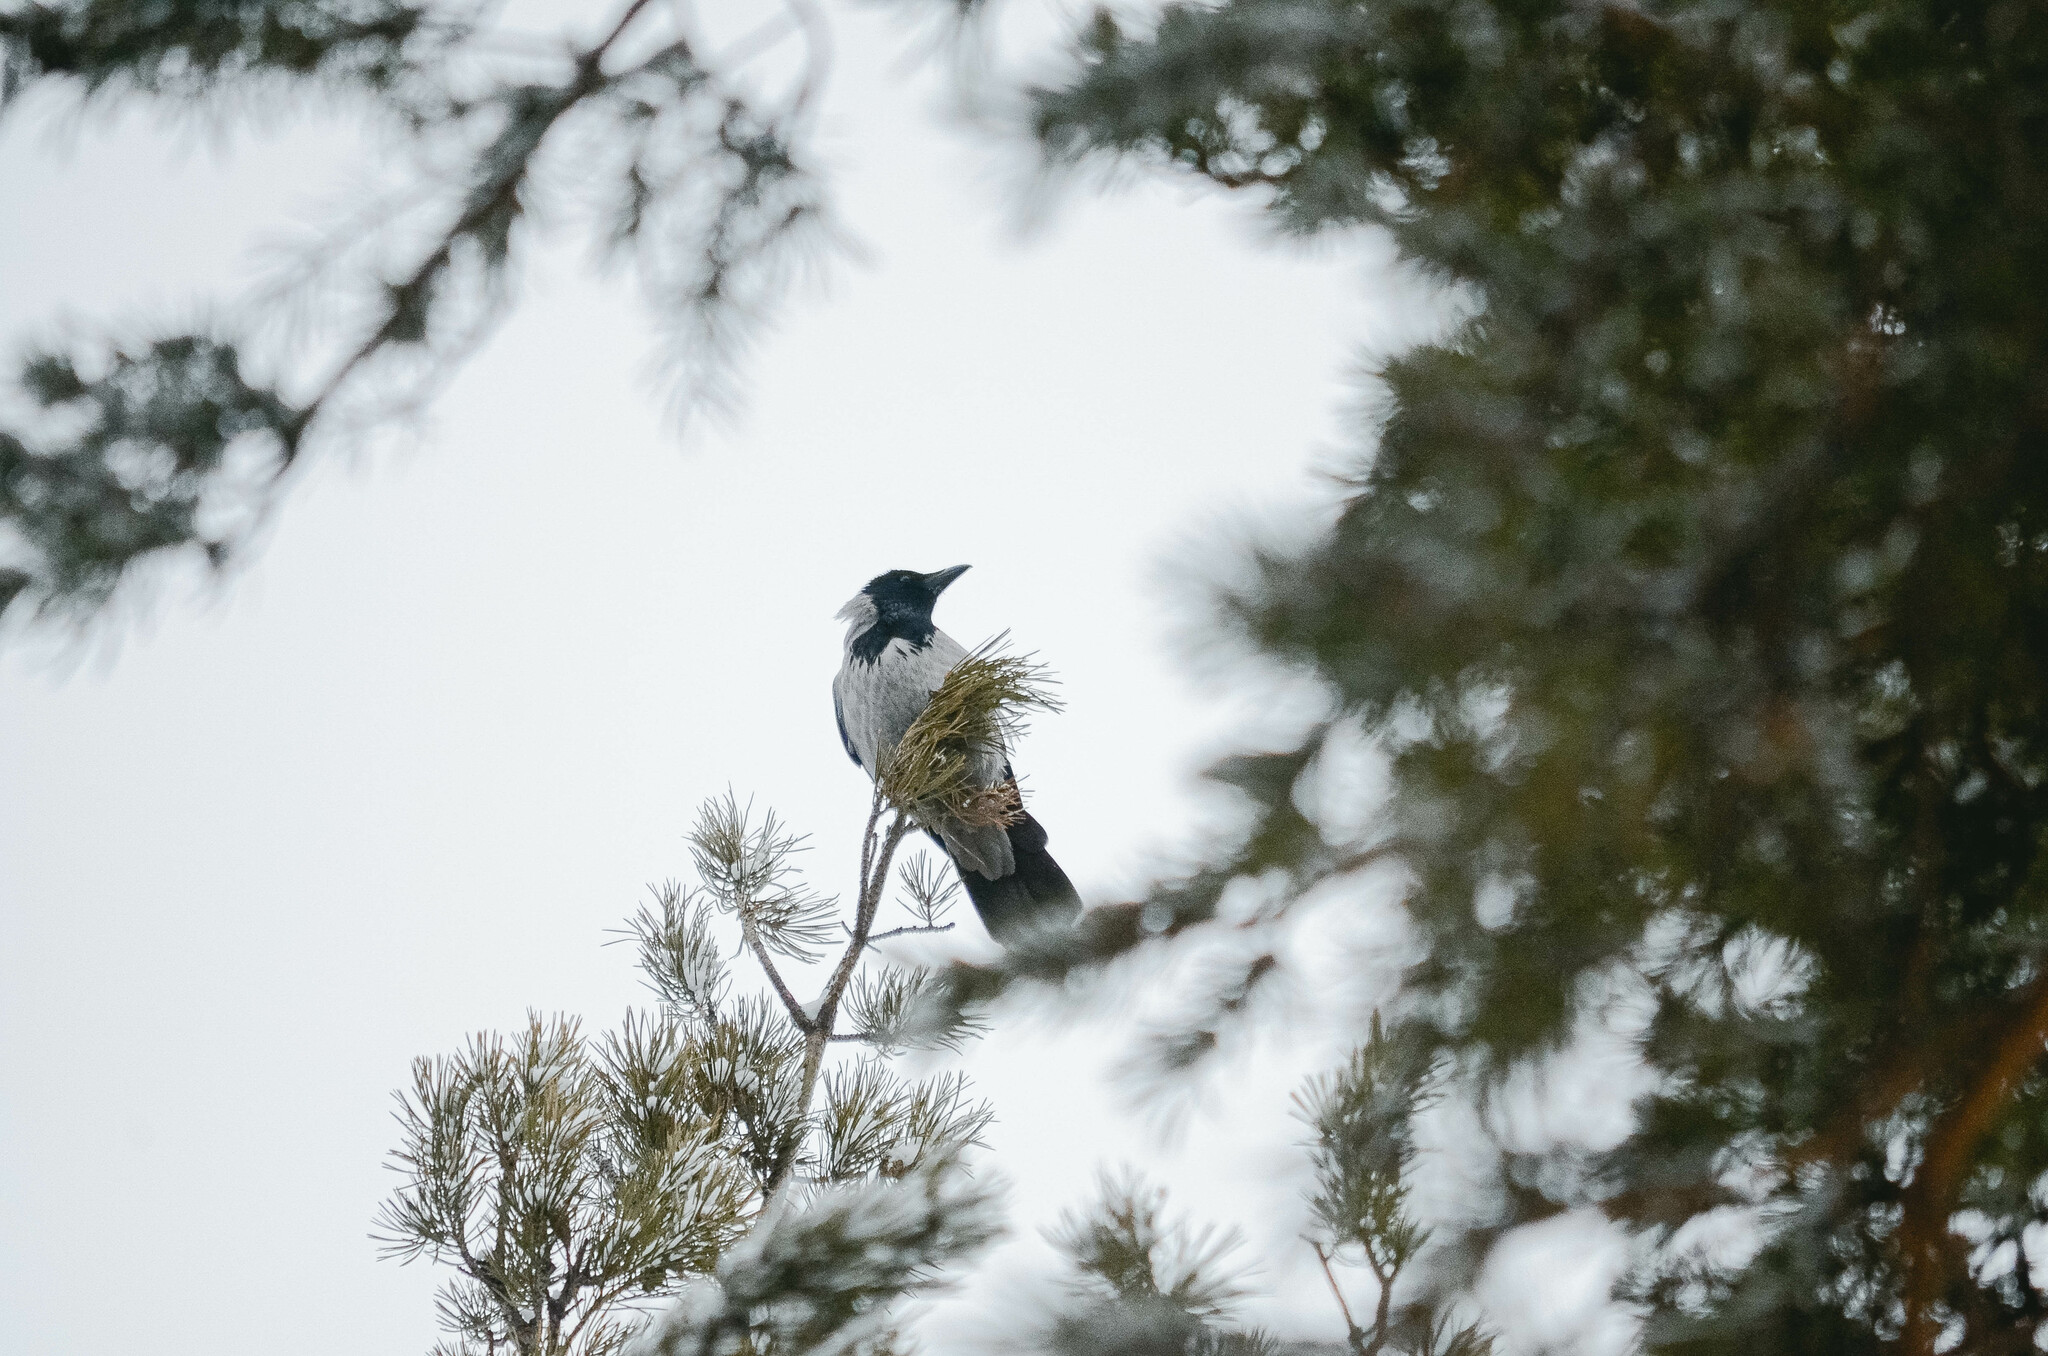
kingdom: Animalia
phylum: Chordata
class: Aves
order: Passeriformes
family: Corvidae
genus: Corvus
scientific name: Corvus cornix
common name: Hooded crow
